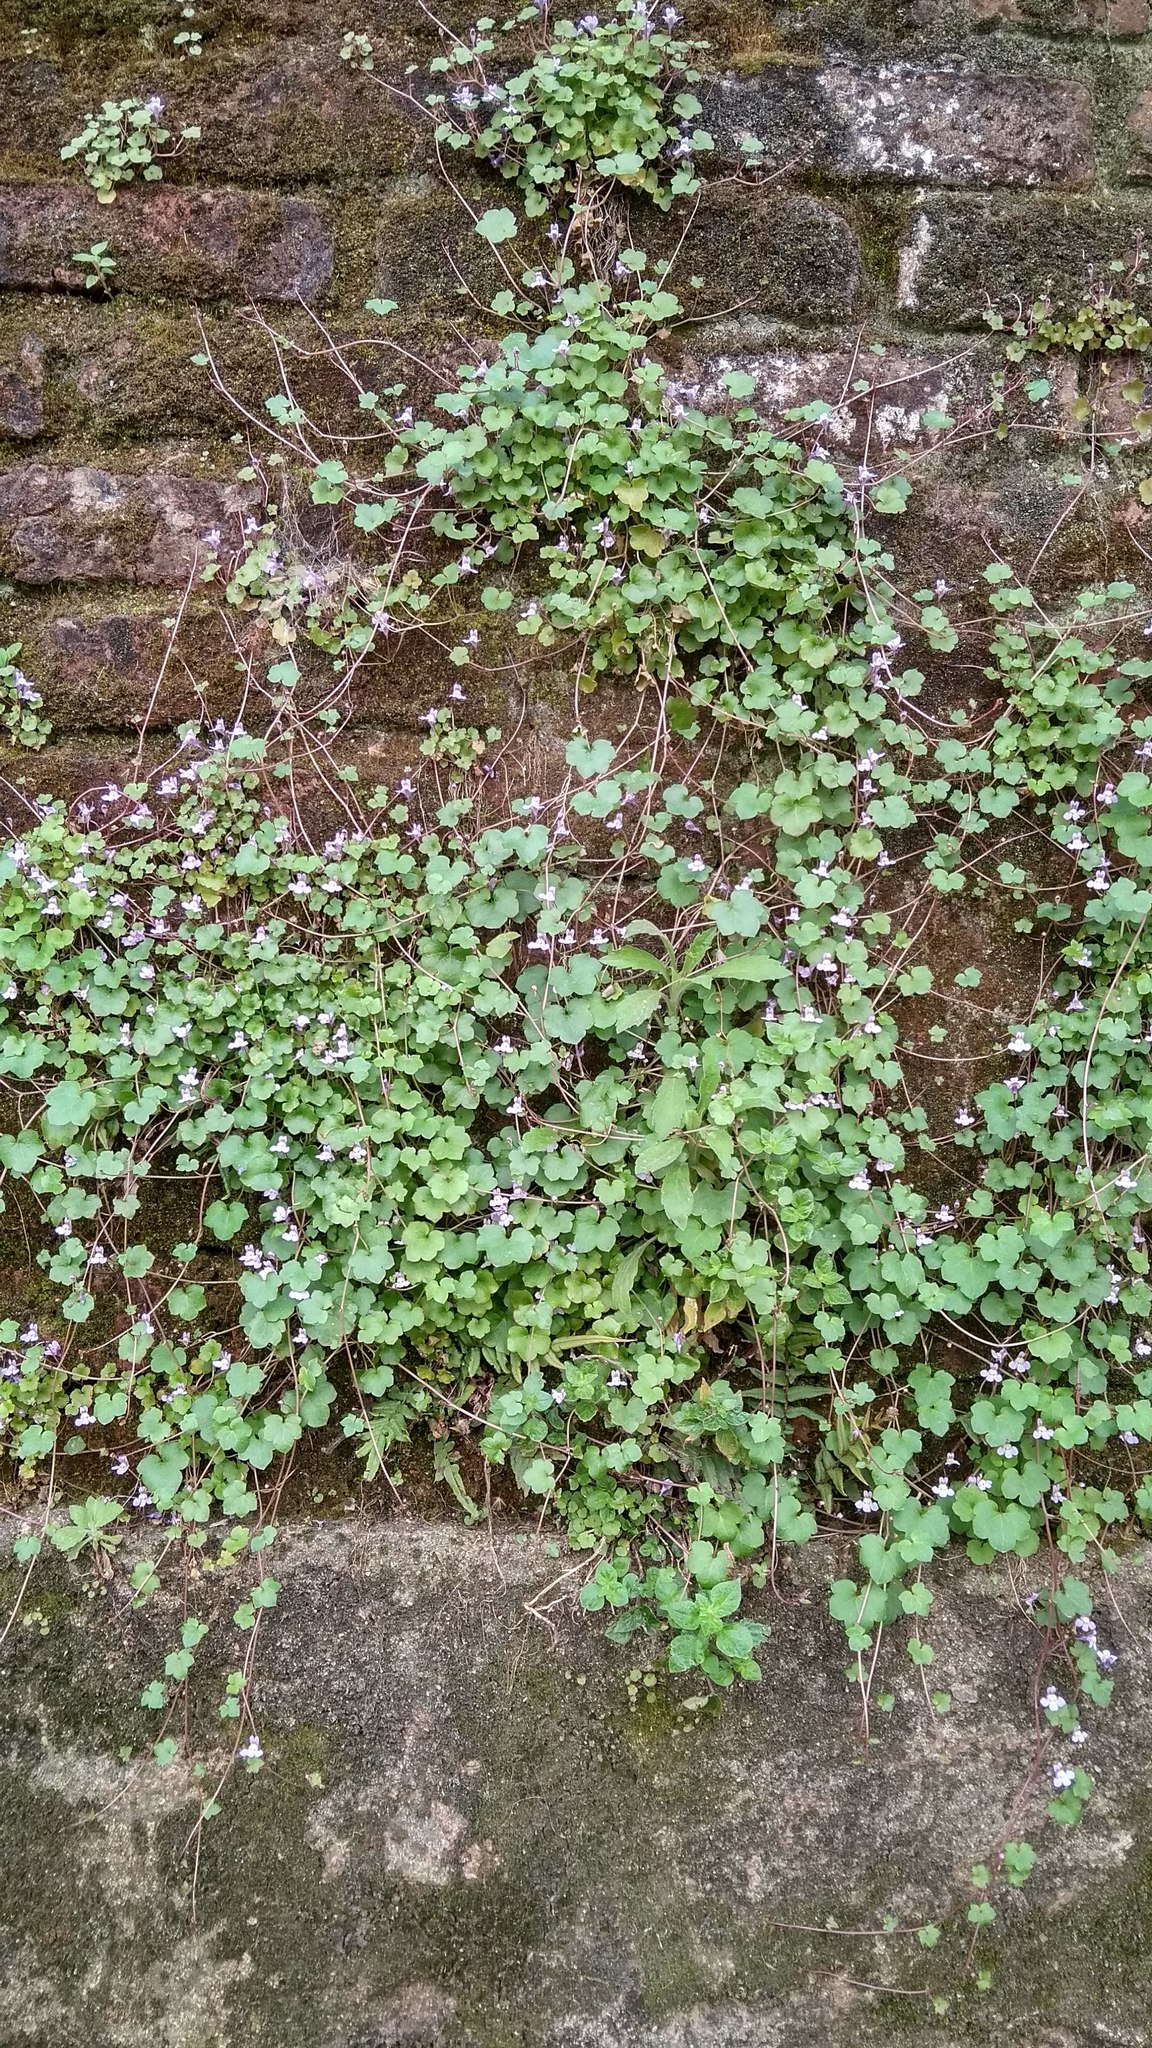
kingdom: Plantae
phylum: Tracheophyta
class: Magnoliopsida
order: Lamiales
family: Plantaginaceae
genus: Cymbalaria
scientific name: Cymbalaria muralis
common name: Ivy-leaved toadflax
